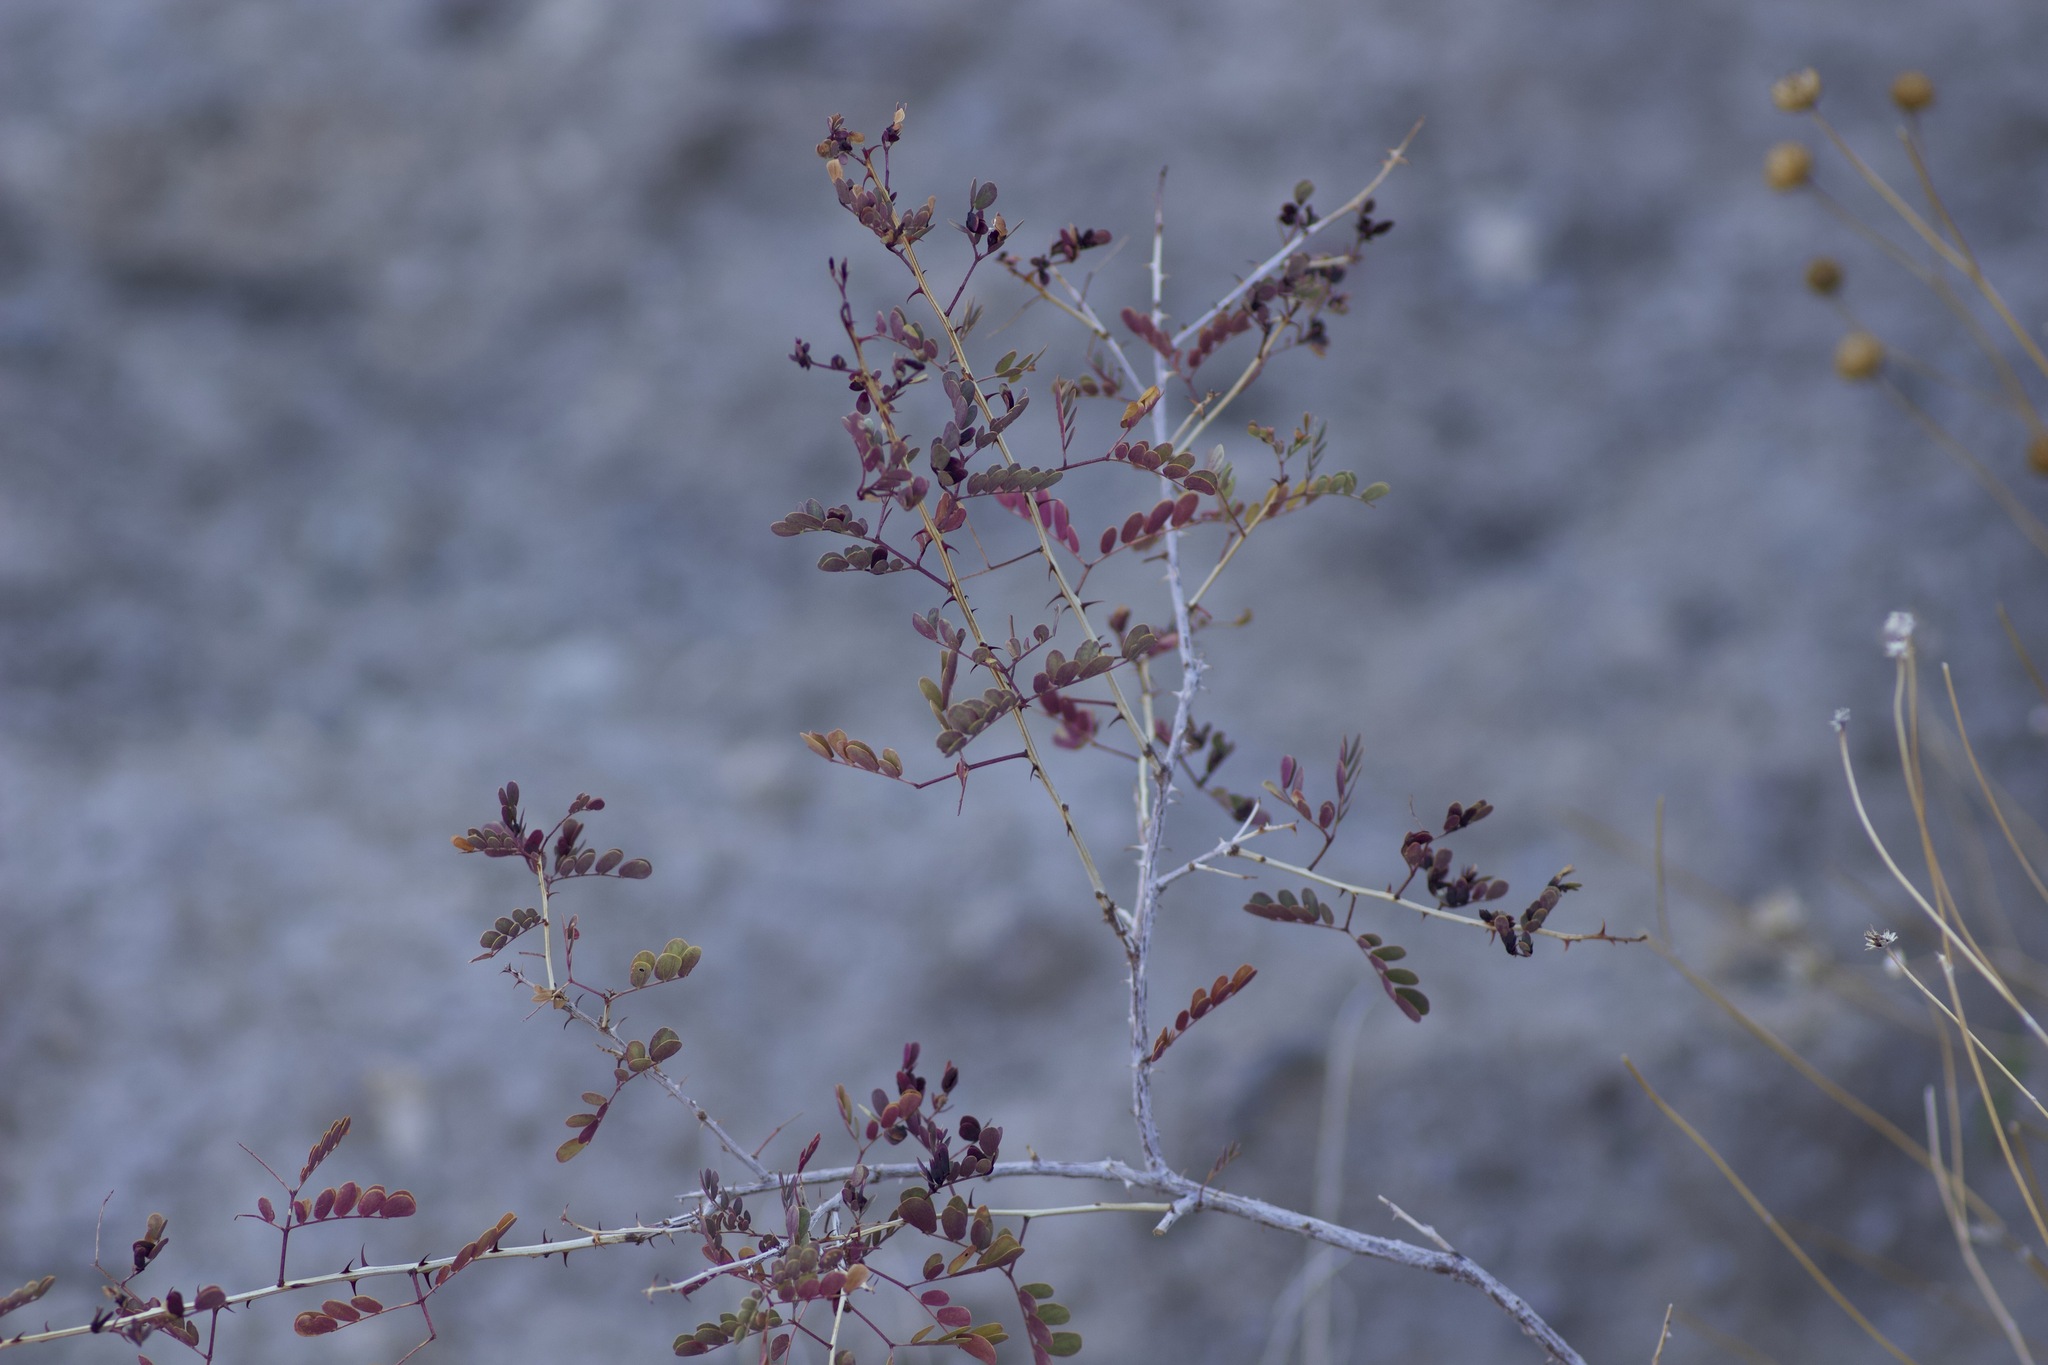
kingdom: Plantae
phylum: Tracheophyta
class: Magnoliopsida
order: Fabales
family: Fabaceae
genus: Senegalia
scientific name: Senegalia greggii
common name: Texas-mimosa
